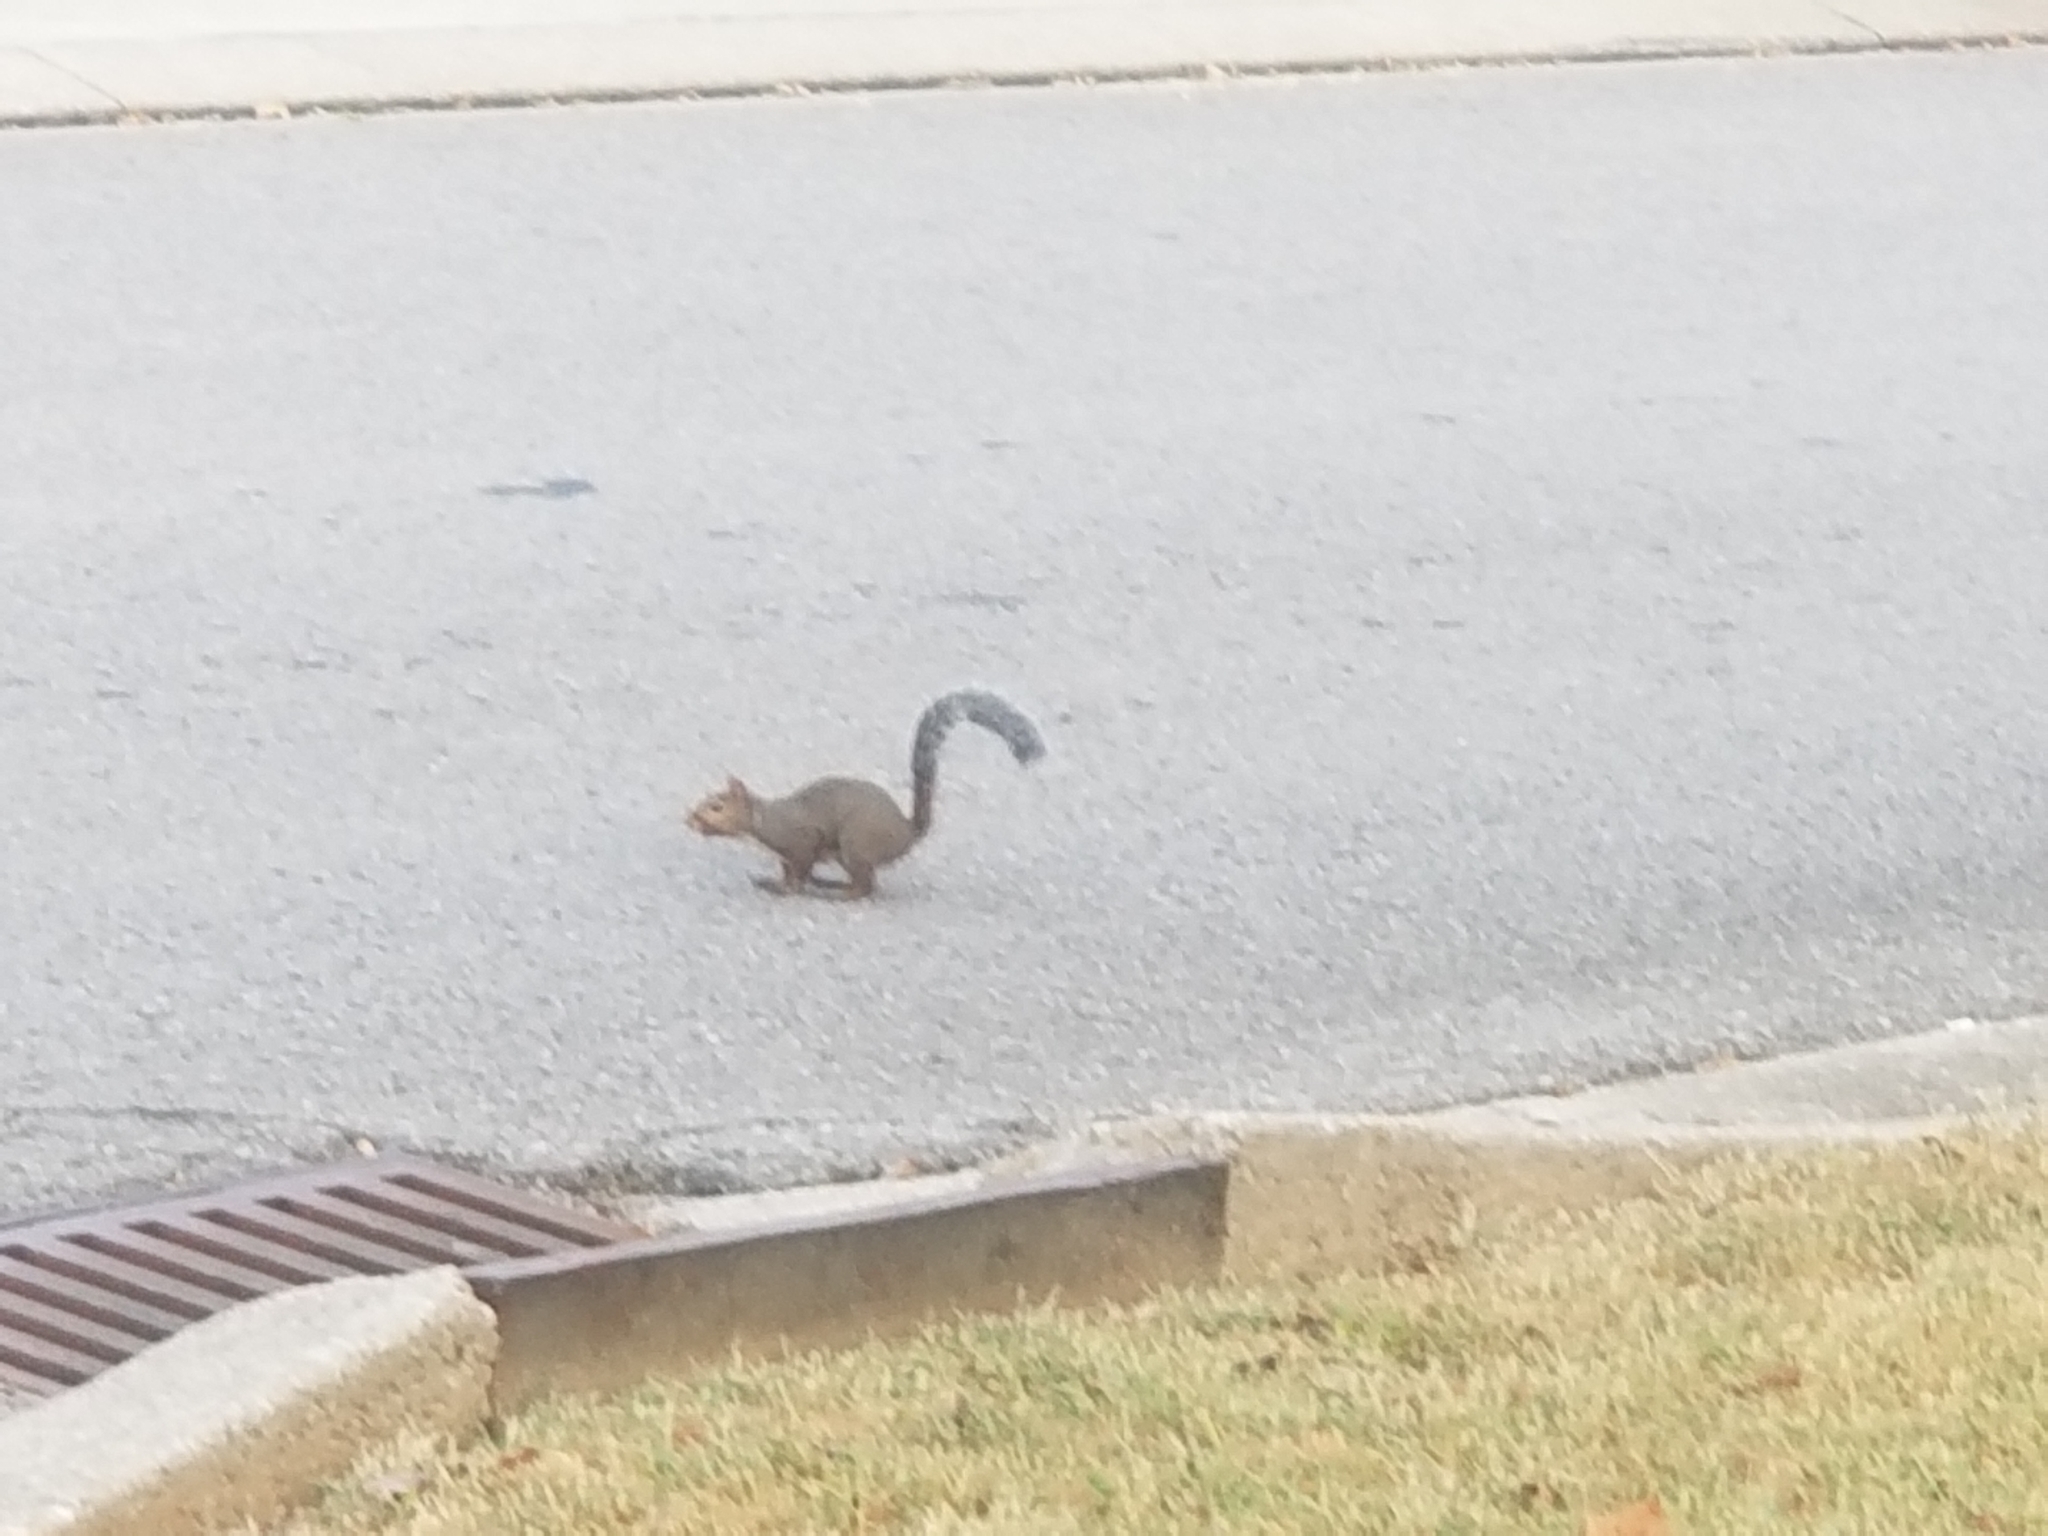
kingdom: Animalia
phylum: Chordata
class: Mammalia
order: Rodentia
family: Sciuridae
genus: Sciurus
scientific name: Sciurus carolinensis
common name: Eastern gray squirrel
